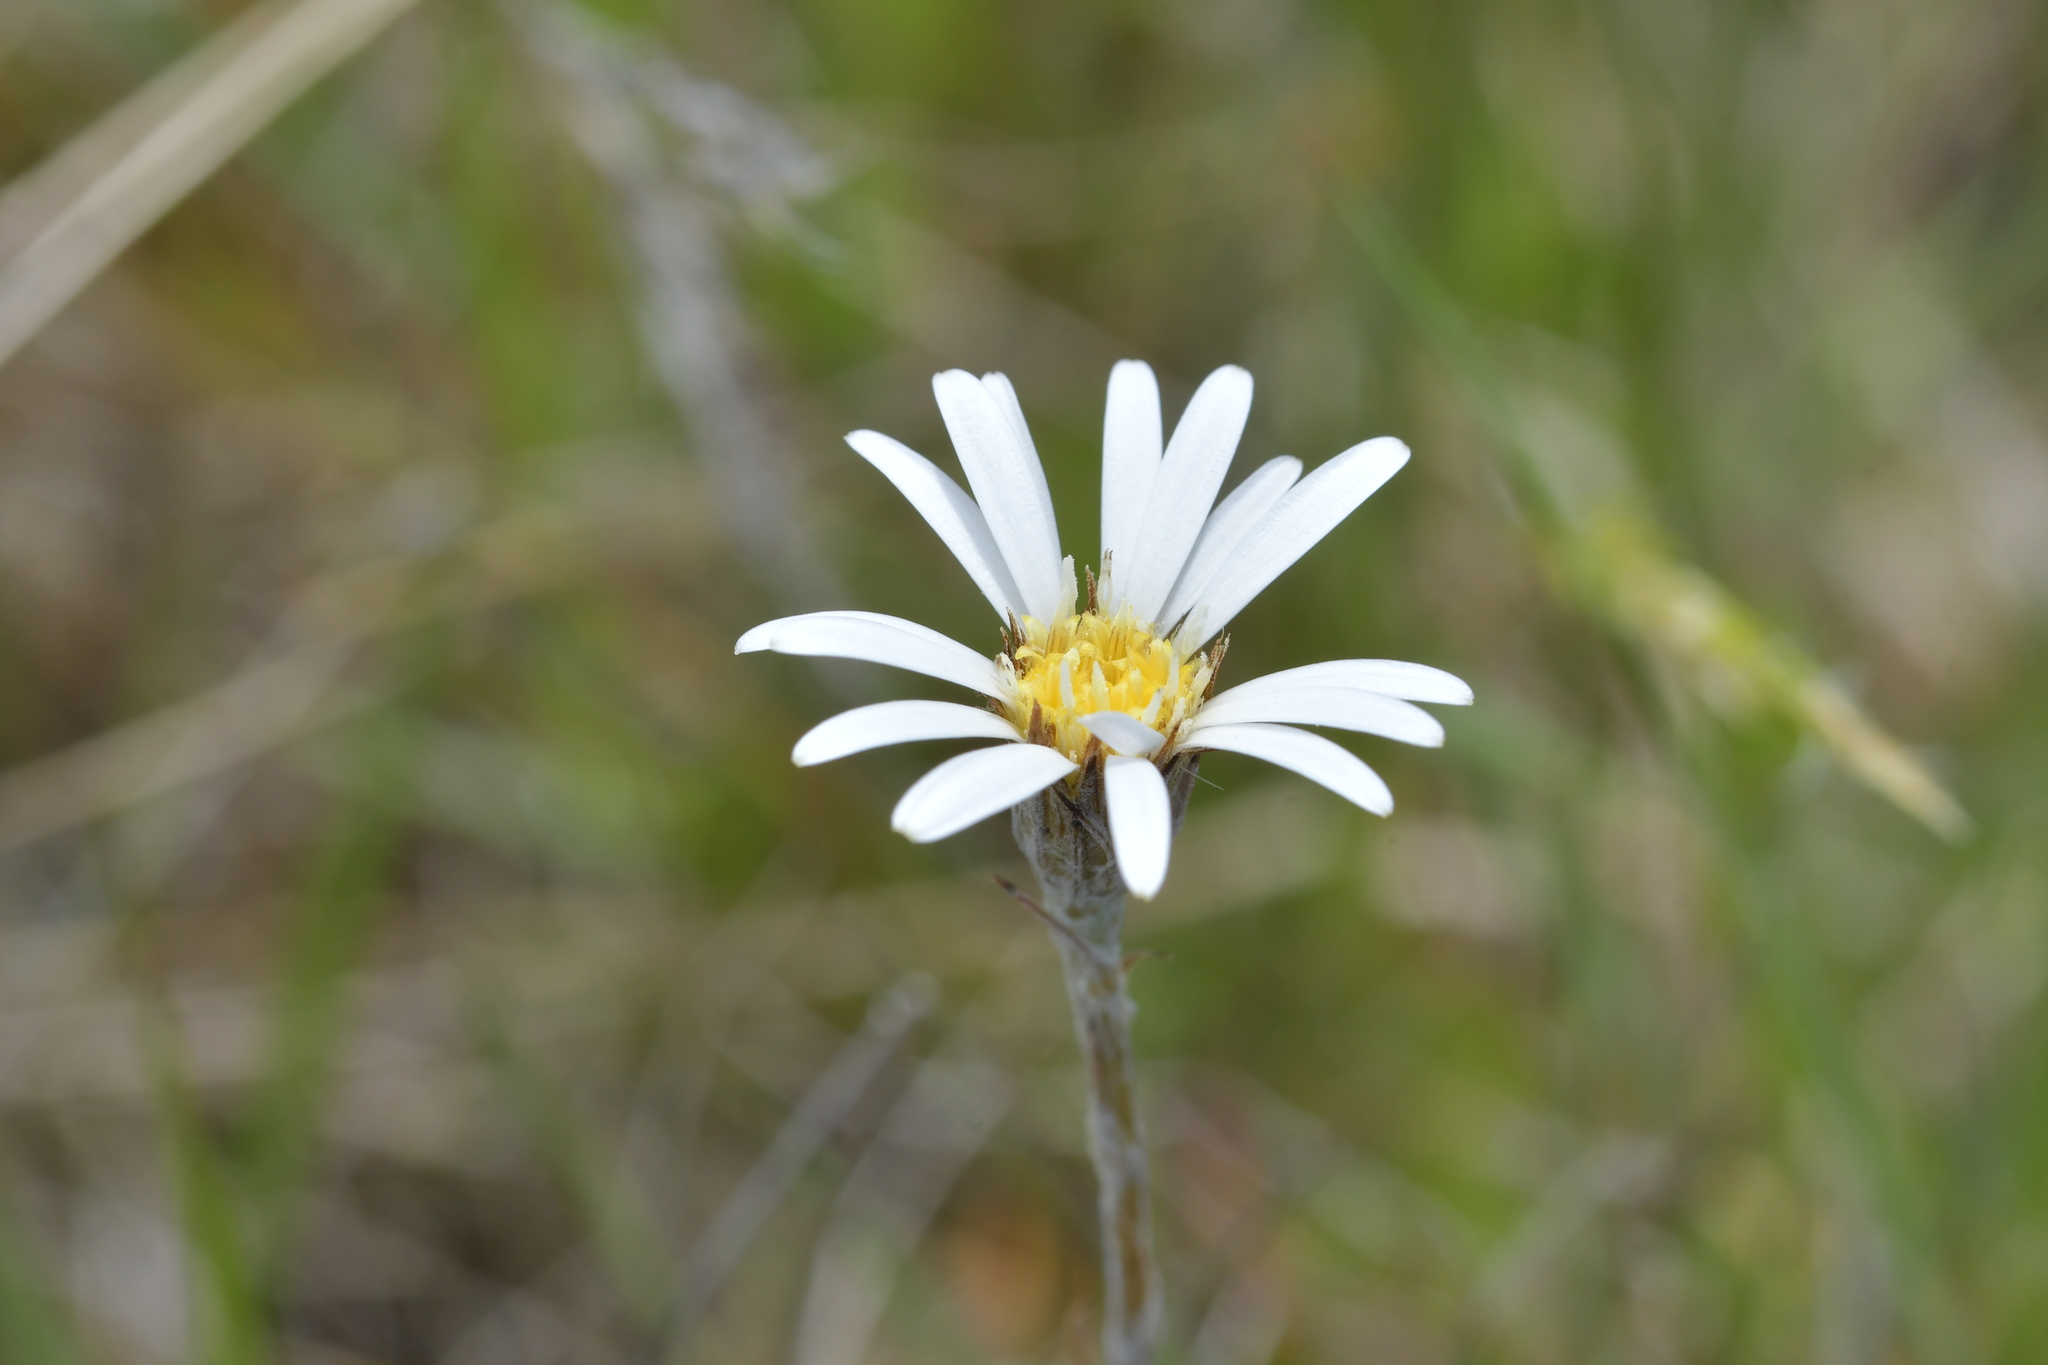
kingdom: Plantae
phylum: Tracheophyta
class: Magnoliopsida
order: Asterales
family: Asteraceae
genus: Celmisia
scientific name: Celmisia gracilenta
